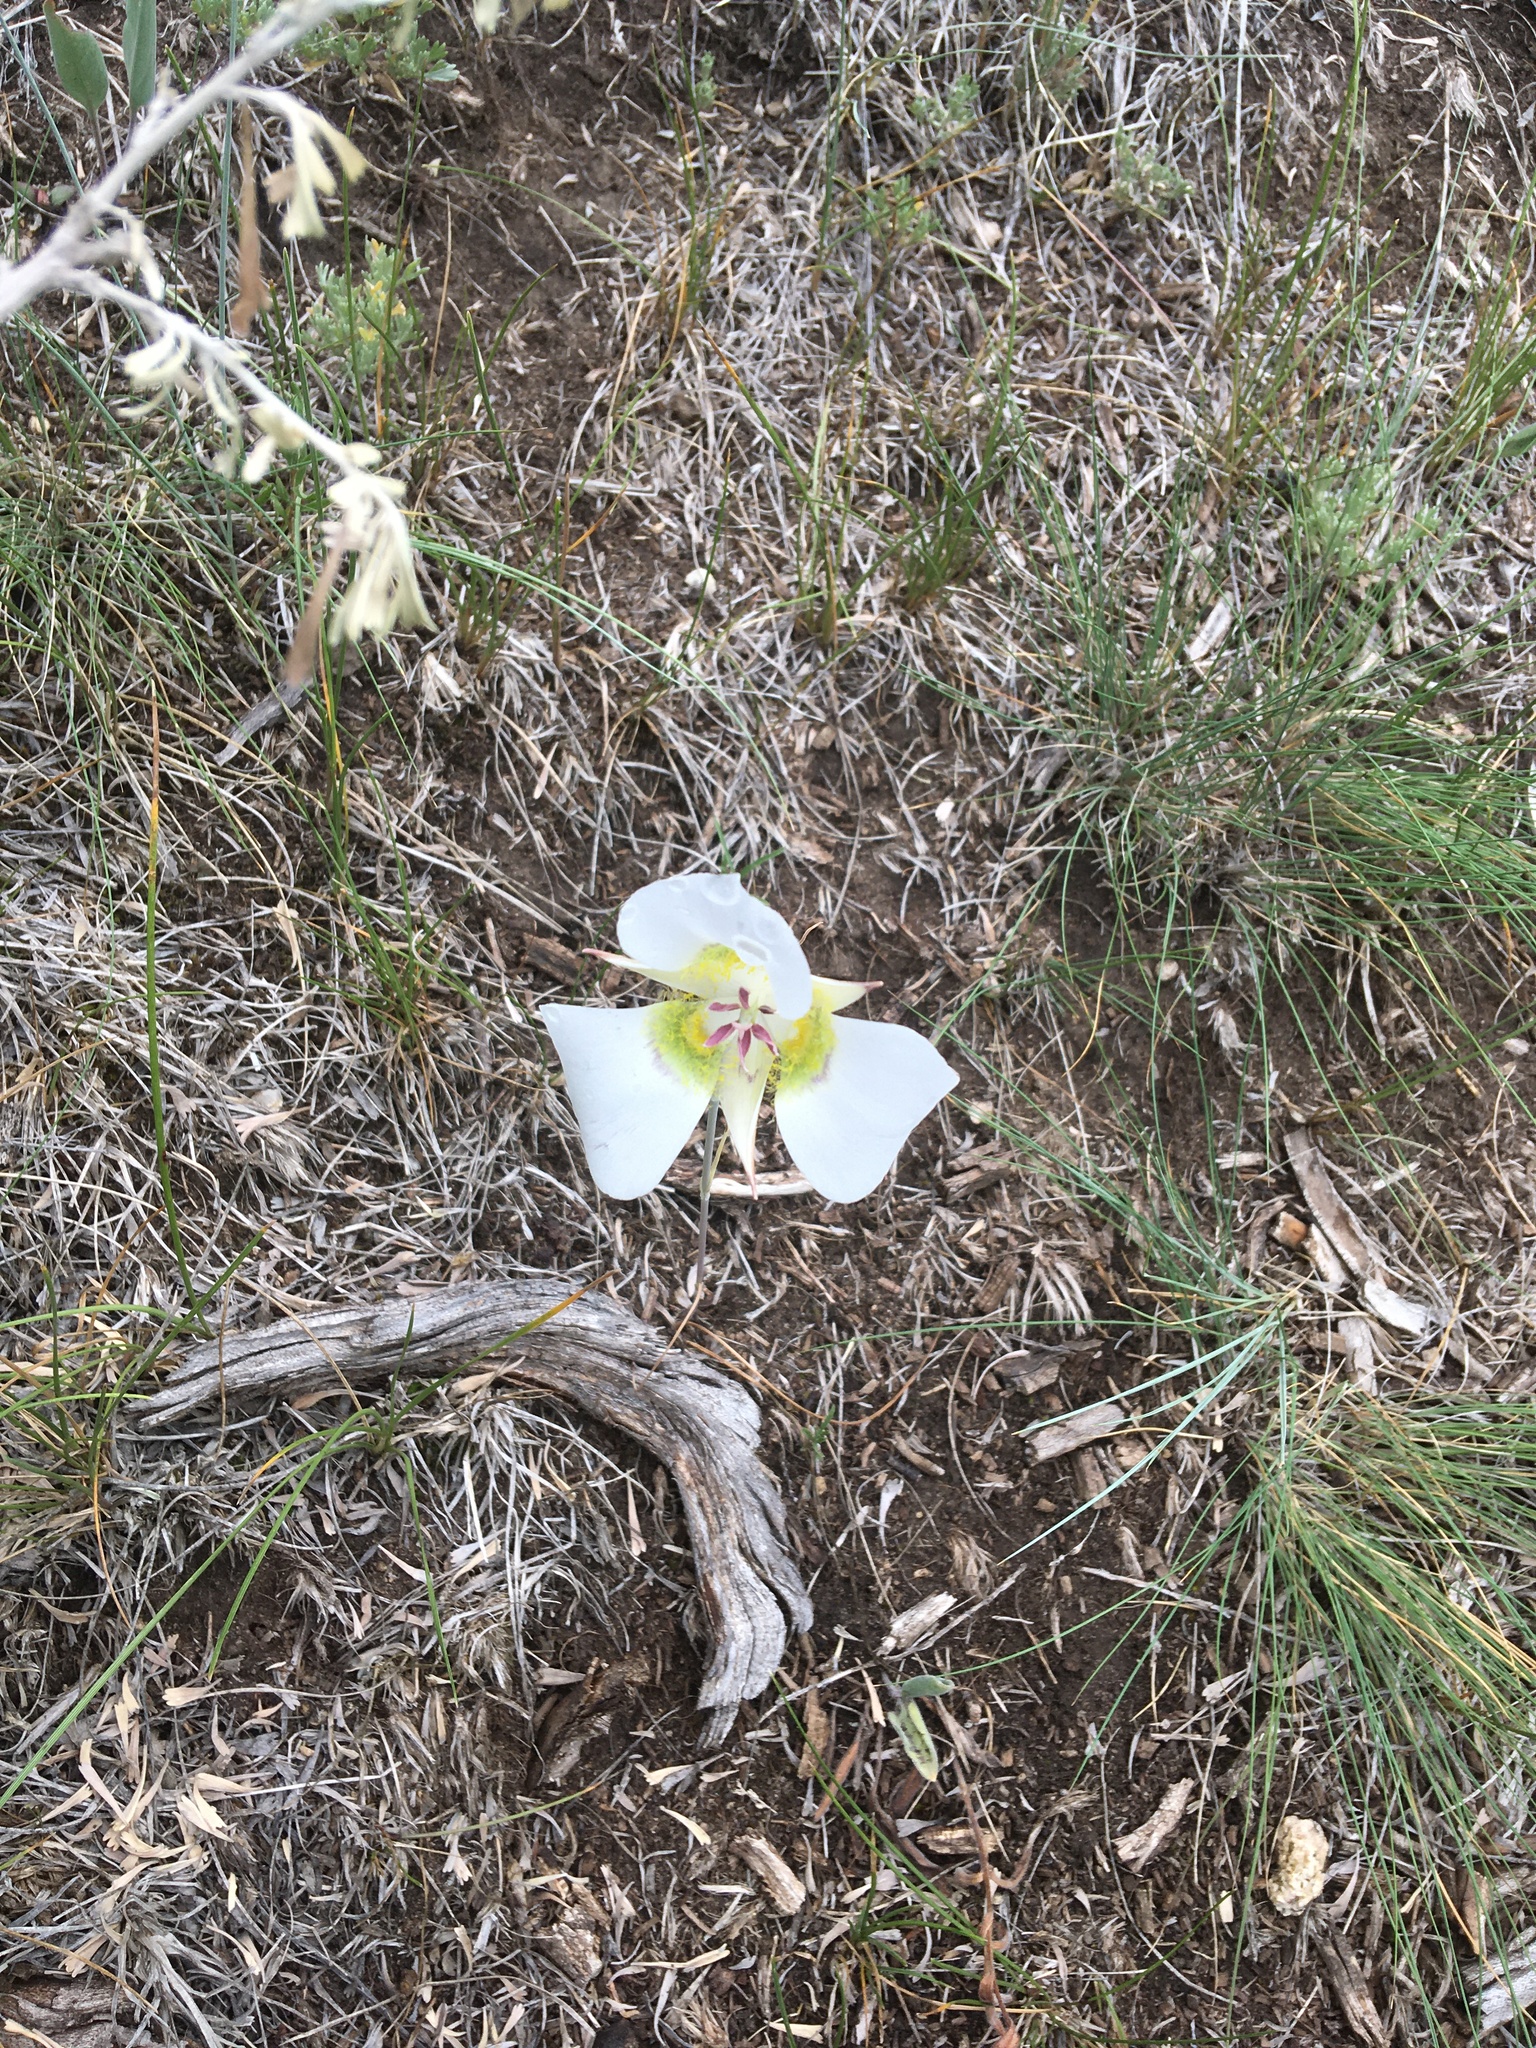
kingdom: Plantae
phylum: Tracheophyta
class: Liliopsida
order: Liliales
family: Liliaceae
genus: Calochortus
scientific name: Calochortus gunnisonii
